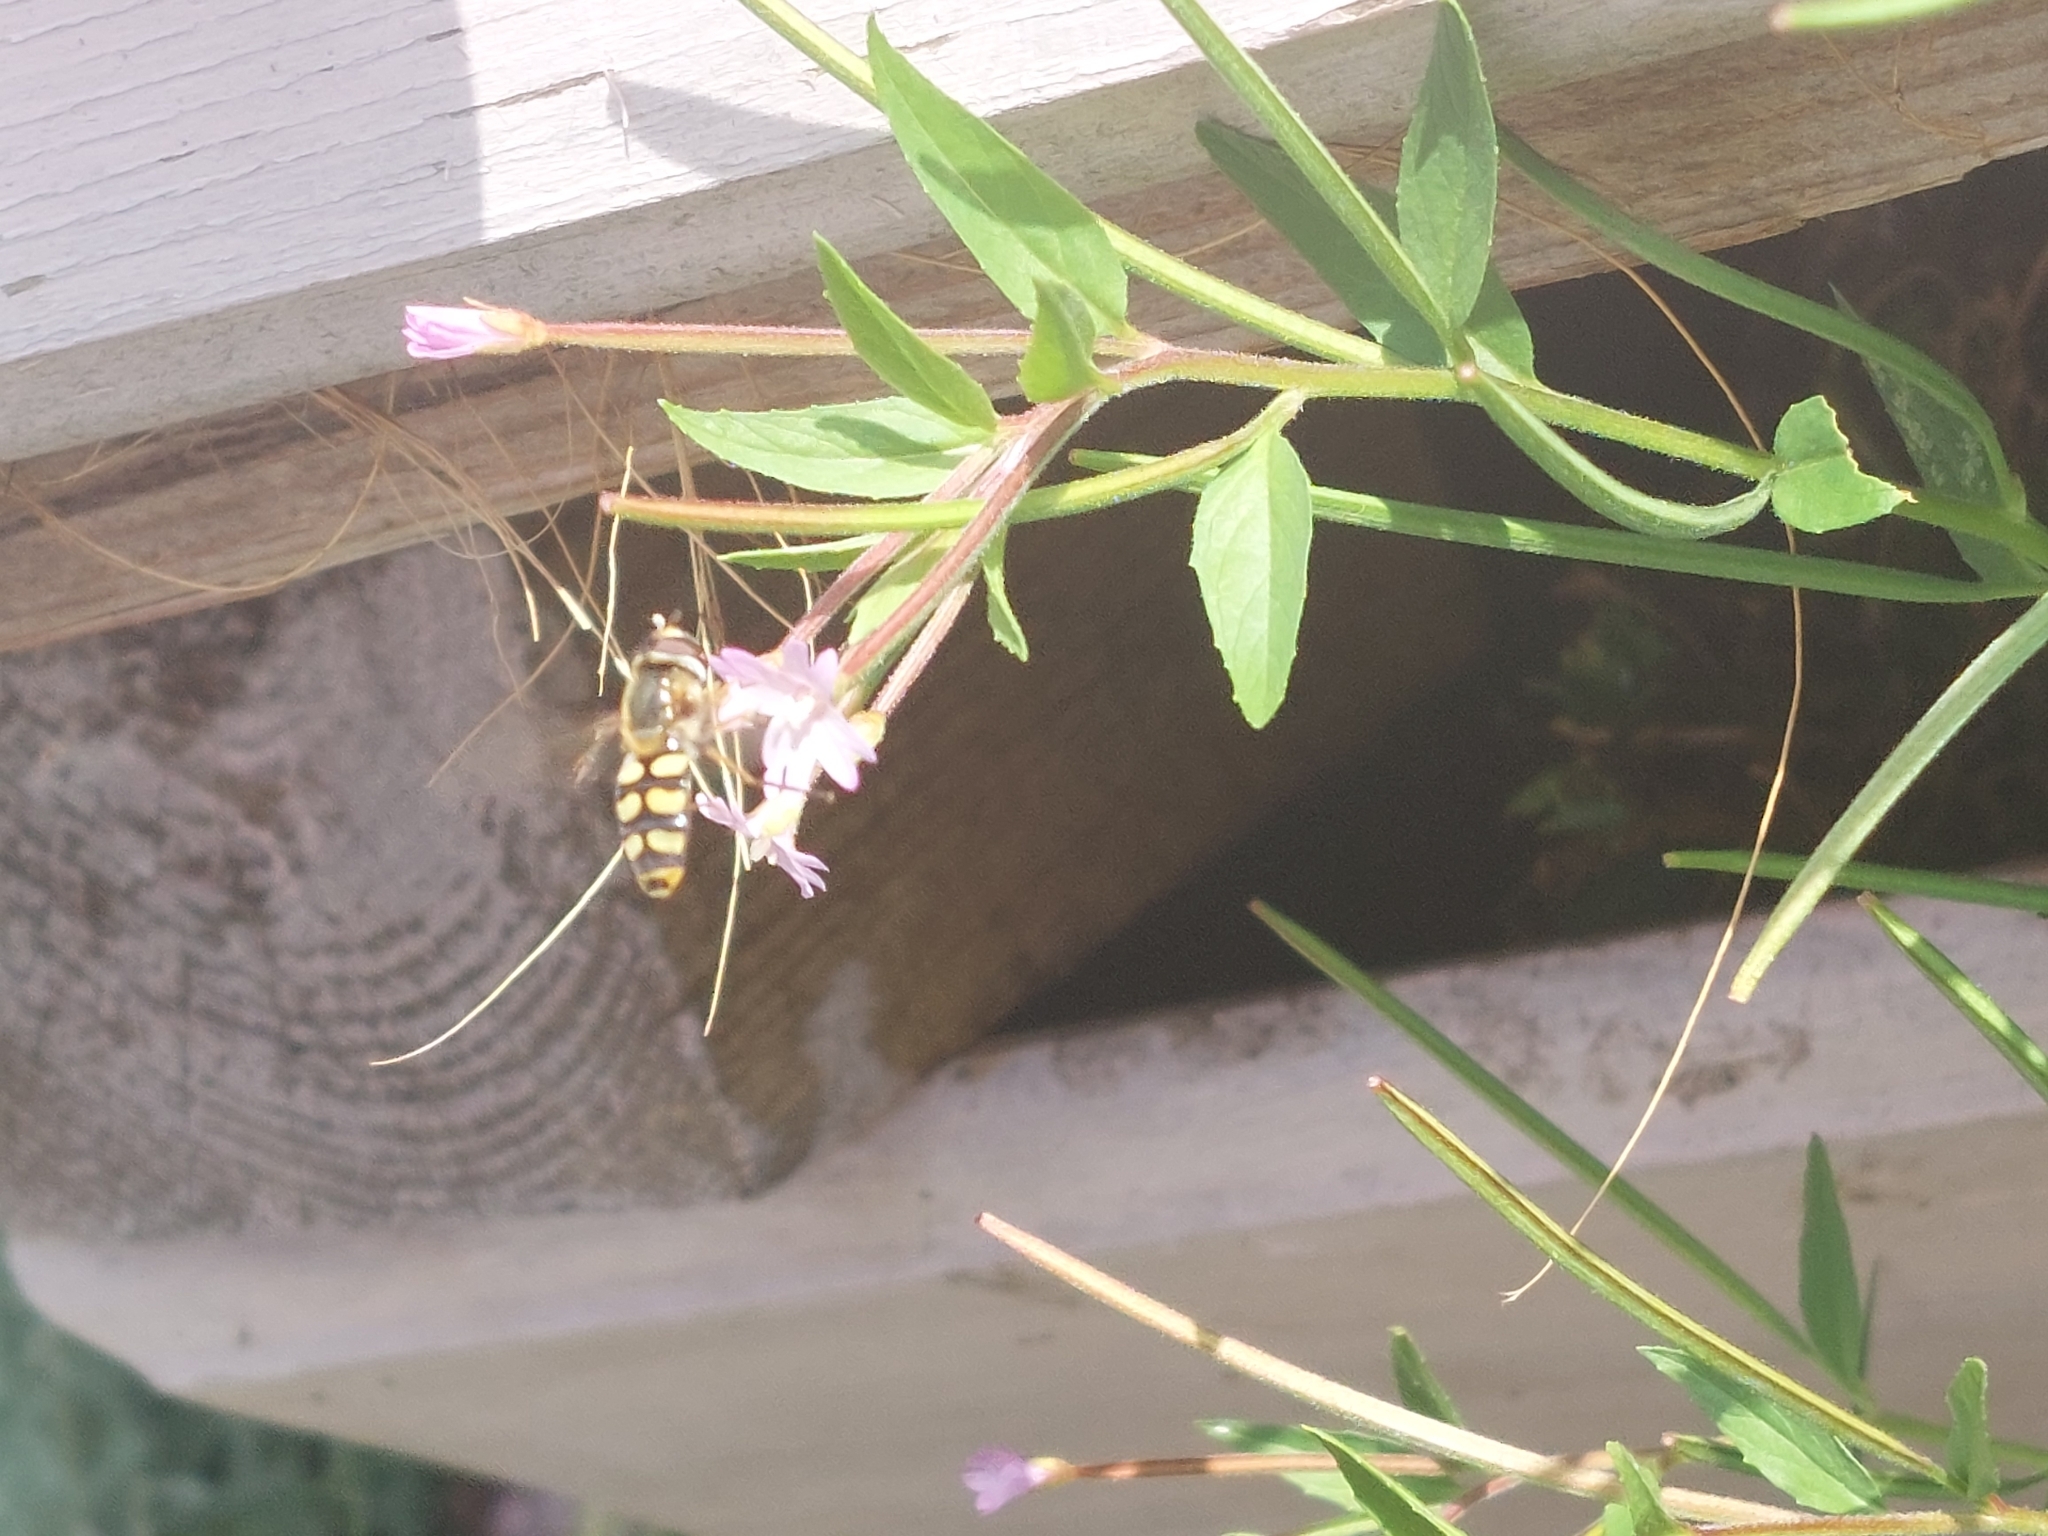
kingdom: Animalia
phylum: Arthropoda
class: Insecta
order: Diptera
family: Syrphidae
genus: Eupeodes
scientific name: Eupeodes corollae
